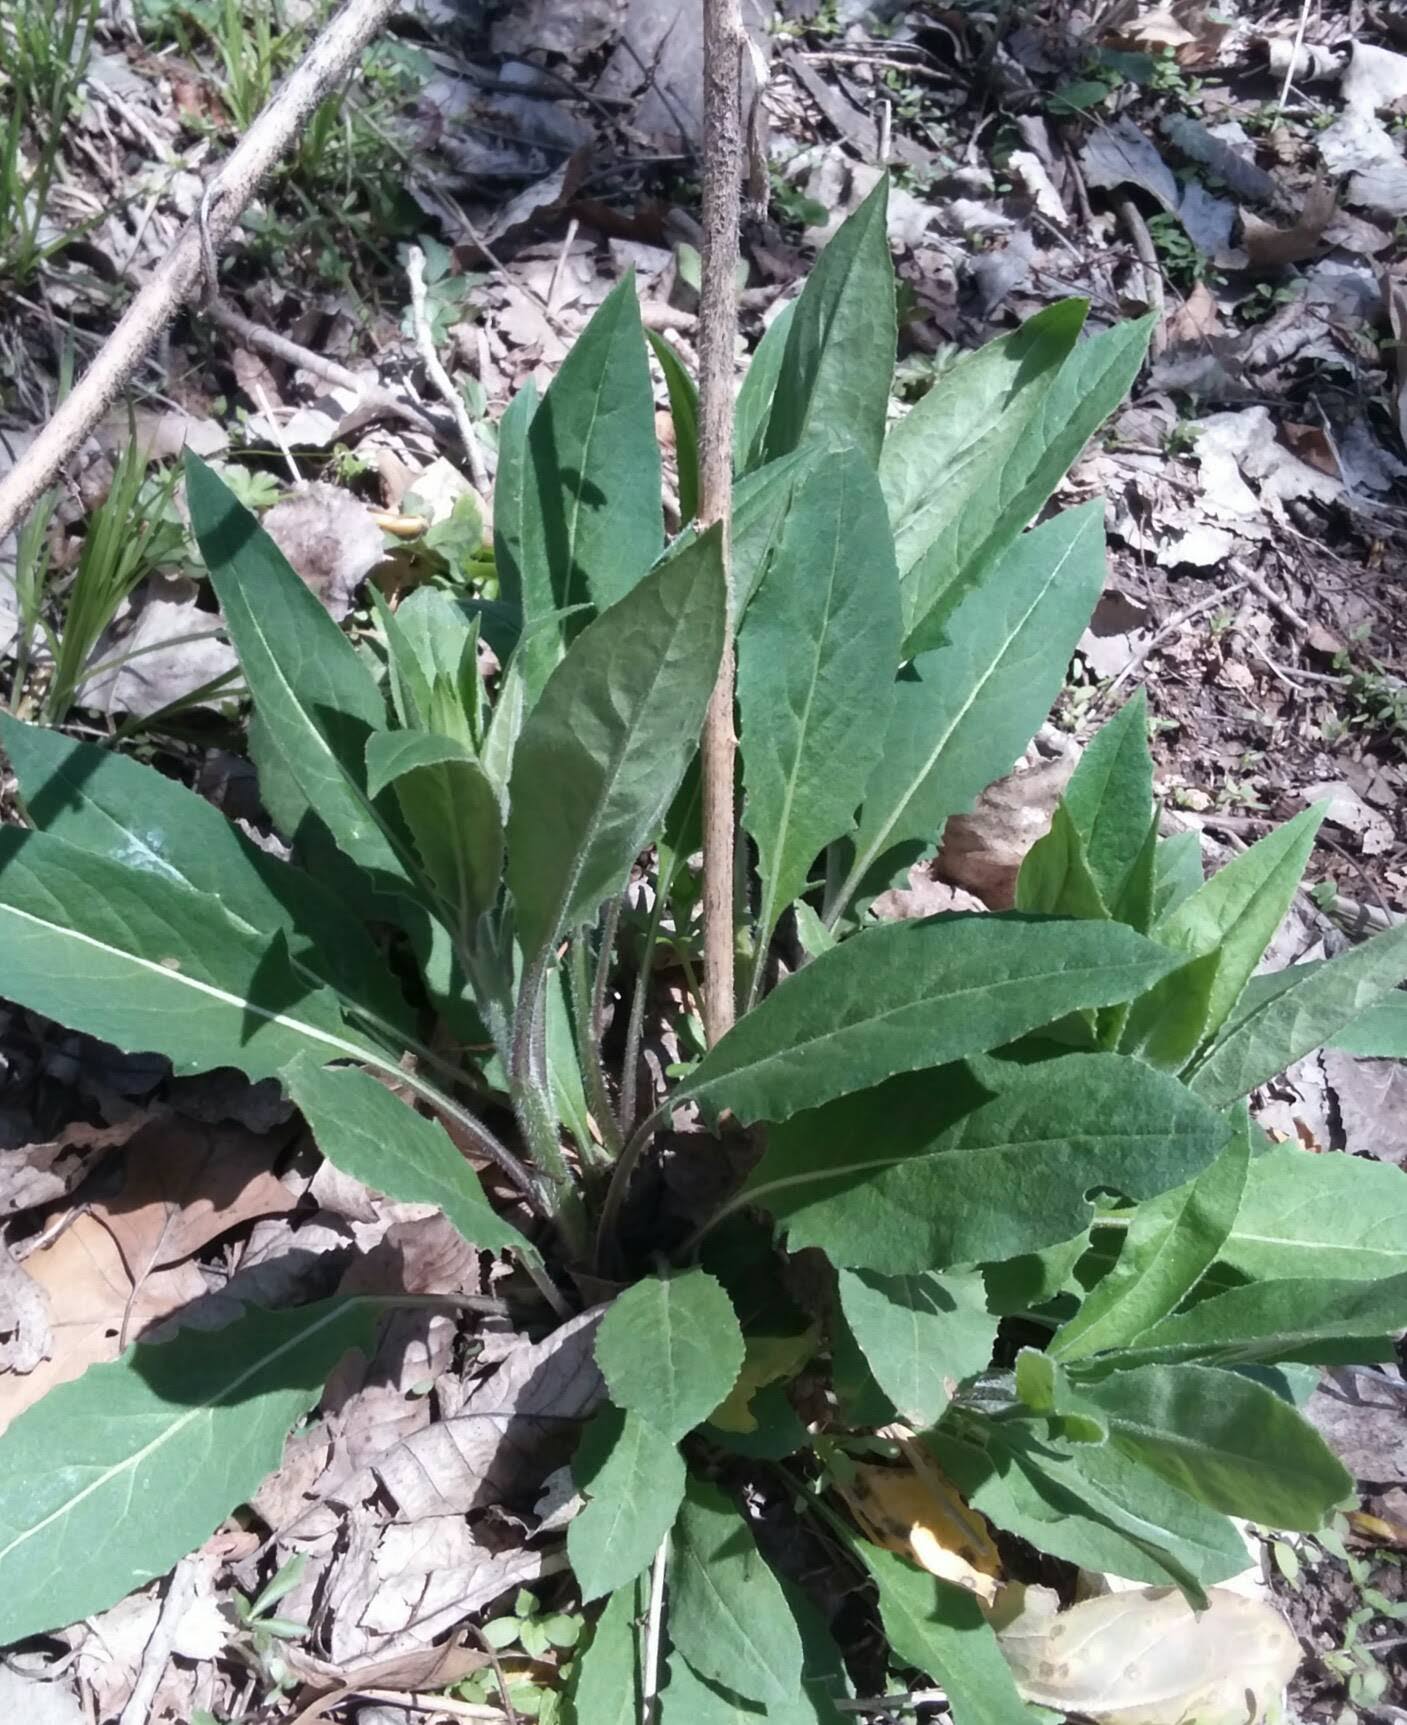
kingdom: Plantae
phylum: Tracheophyta
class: Magnoliopsida
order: Brassicales
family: Brassicaceae
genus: Hesperis
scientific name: Hesperis matronalis
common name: Dame's-violet
